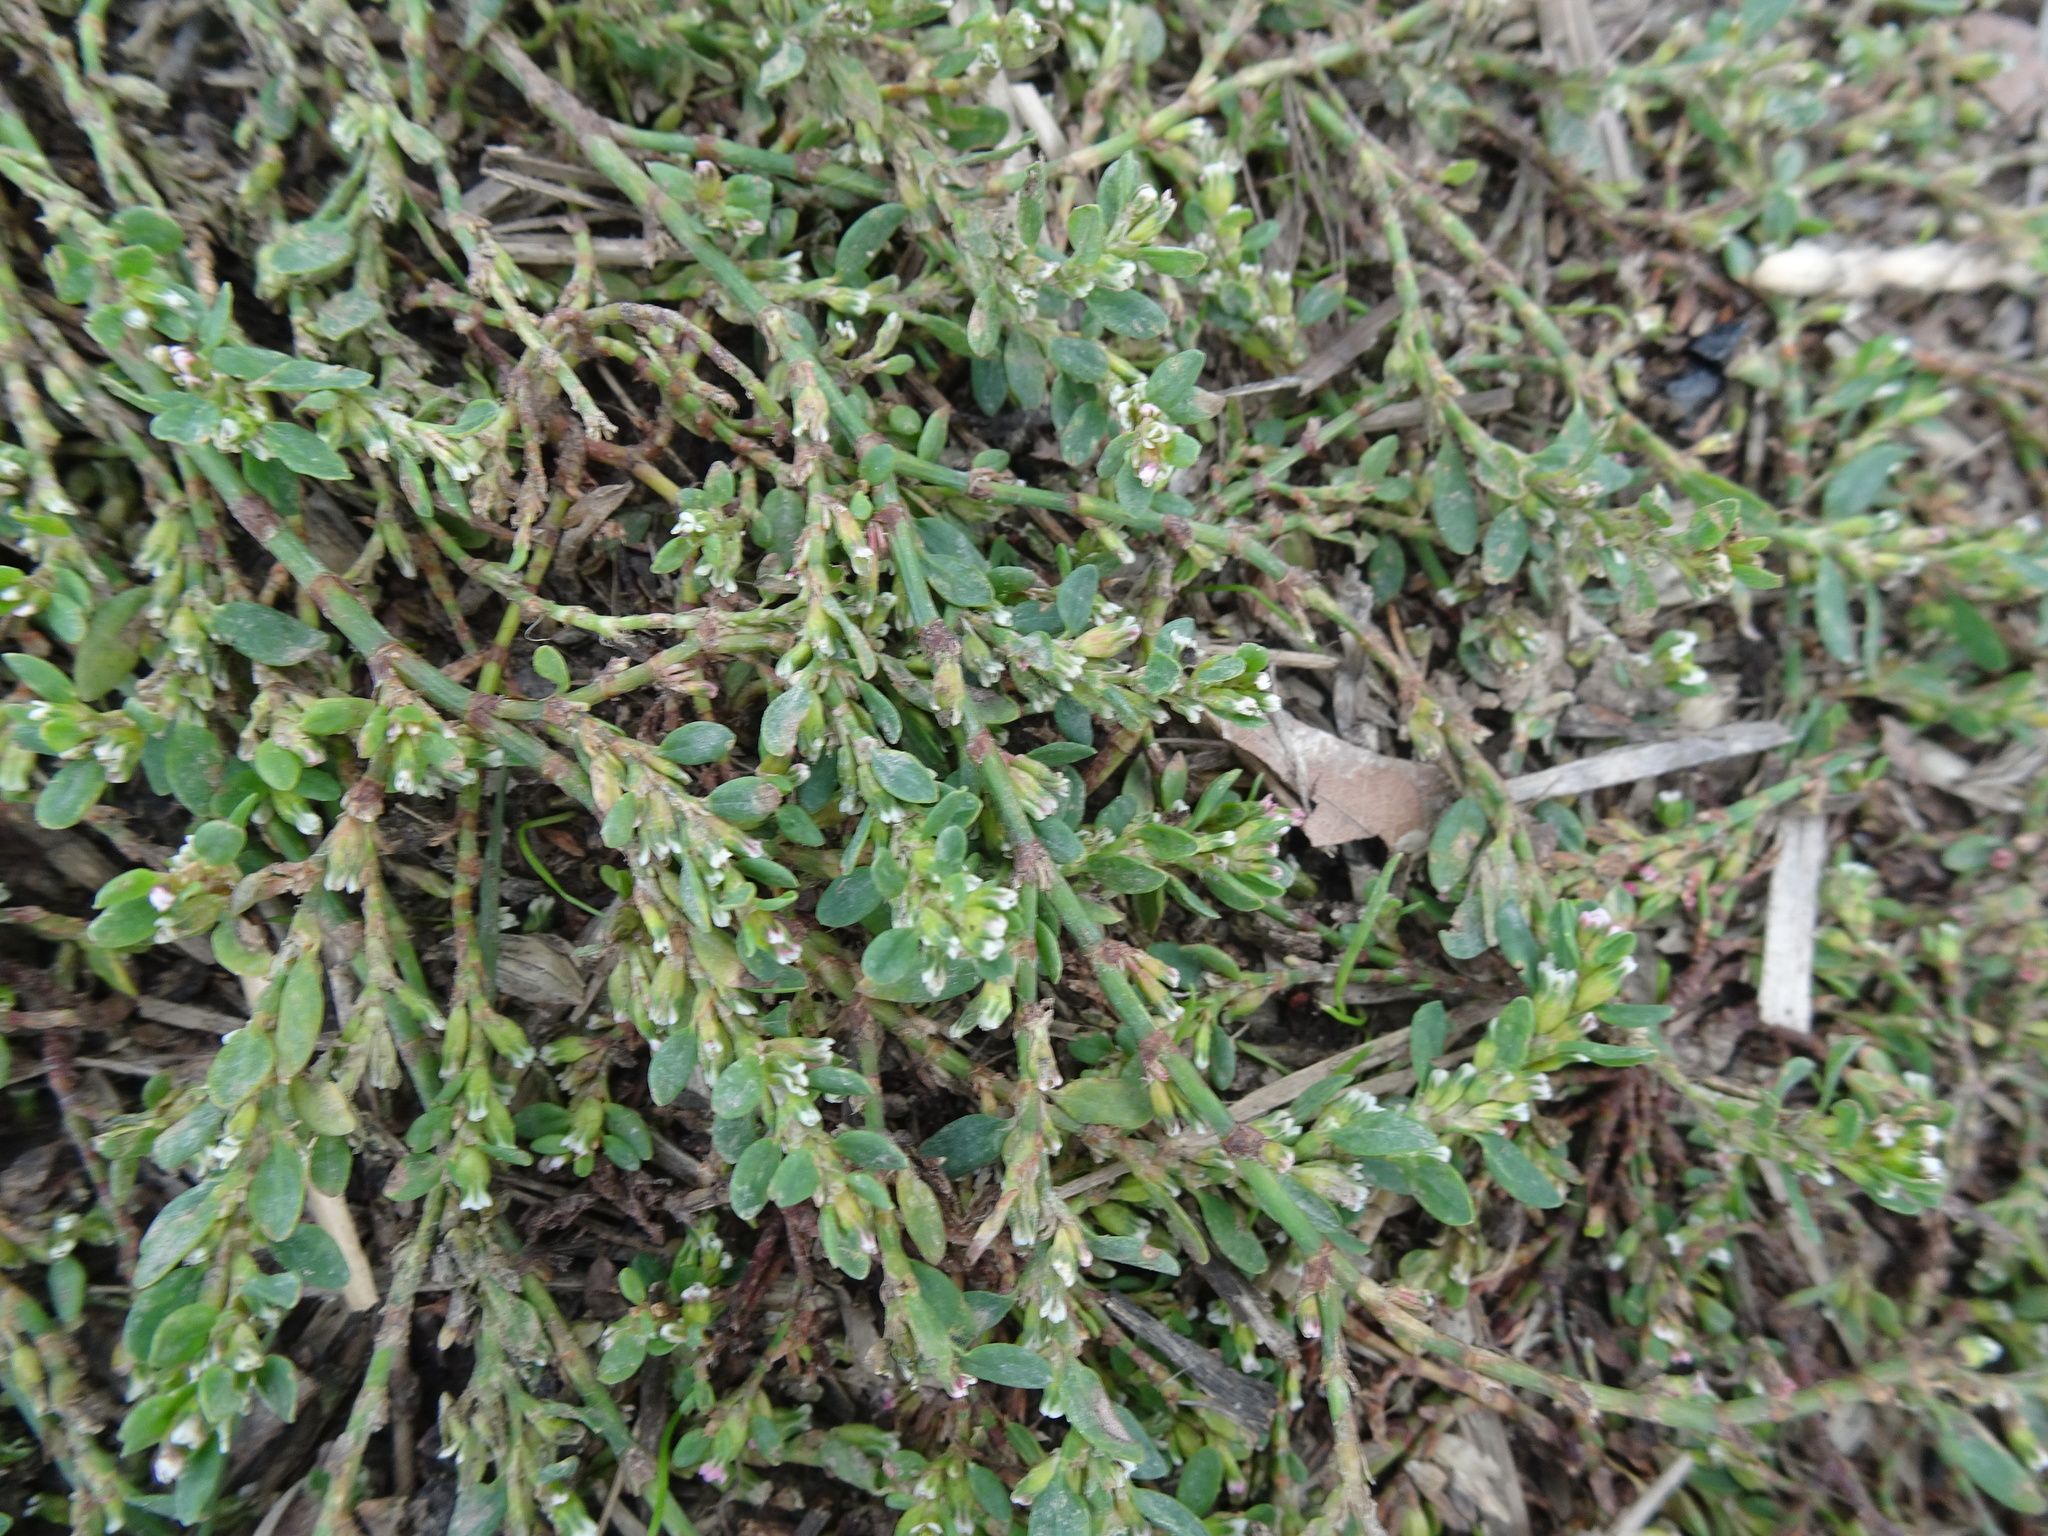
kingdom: Plantae
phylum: Tracheophyta
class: Magnoliopsida
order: Caryophyllales
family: Polygonaceae
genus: Polygonum
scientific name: Polygonum arenastrum
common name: Equal-leaved knotgrass
